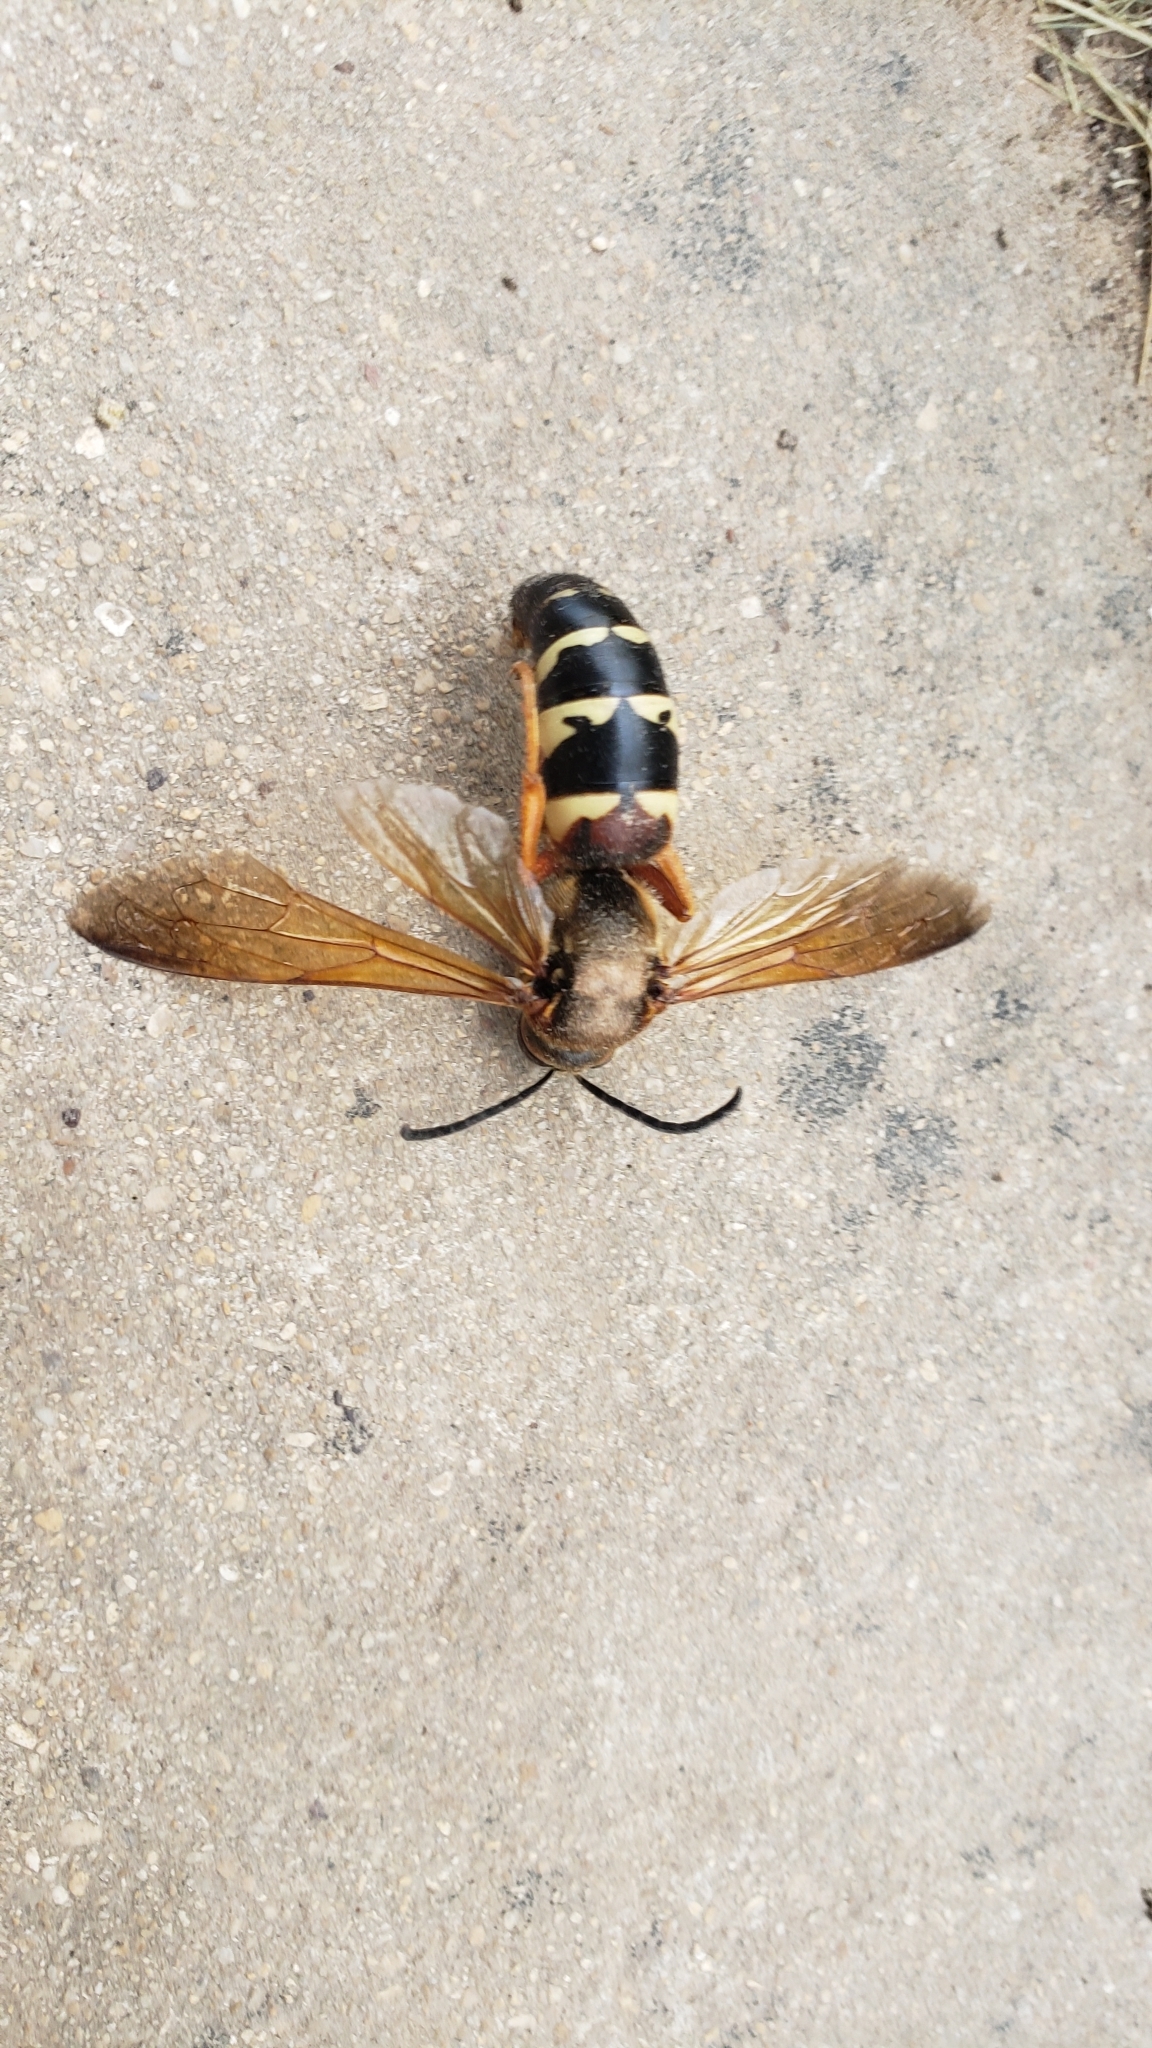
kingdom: Animalia
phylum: Arthropoda
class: Insecta
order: Hymenoptera
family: Crabronidae
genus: Sphecius
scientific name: Sphecius speciosus
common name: Cicada killer
